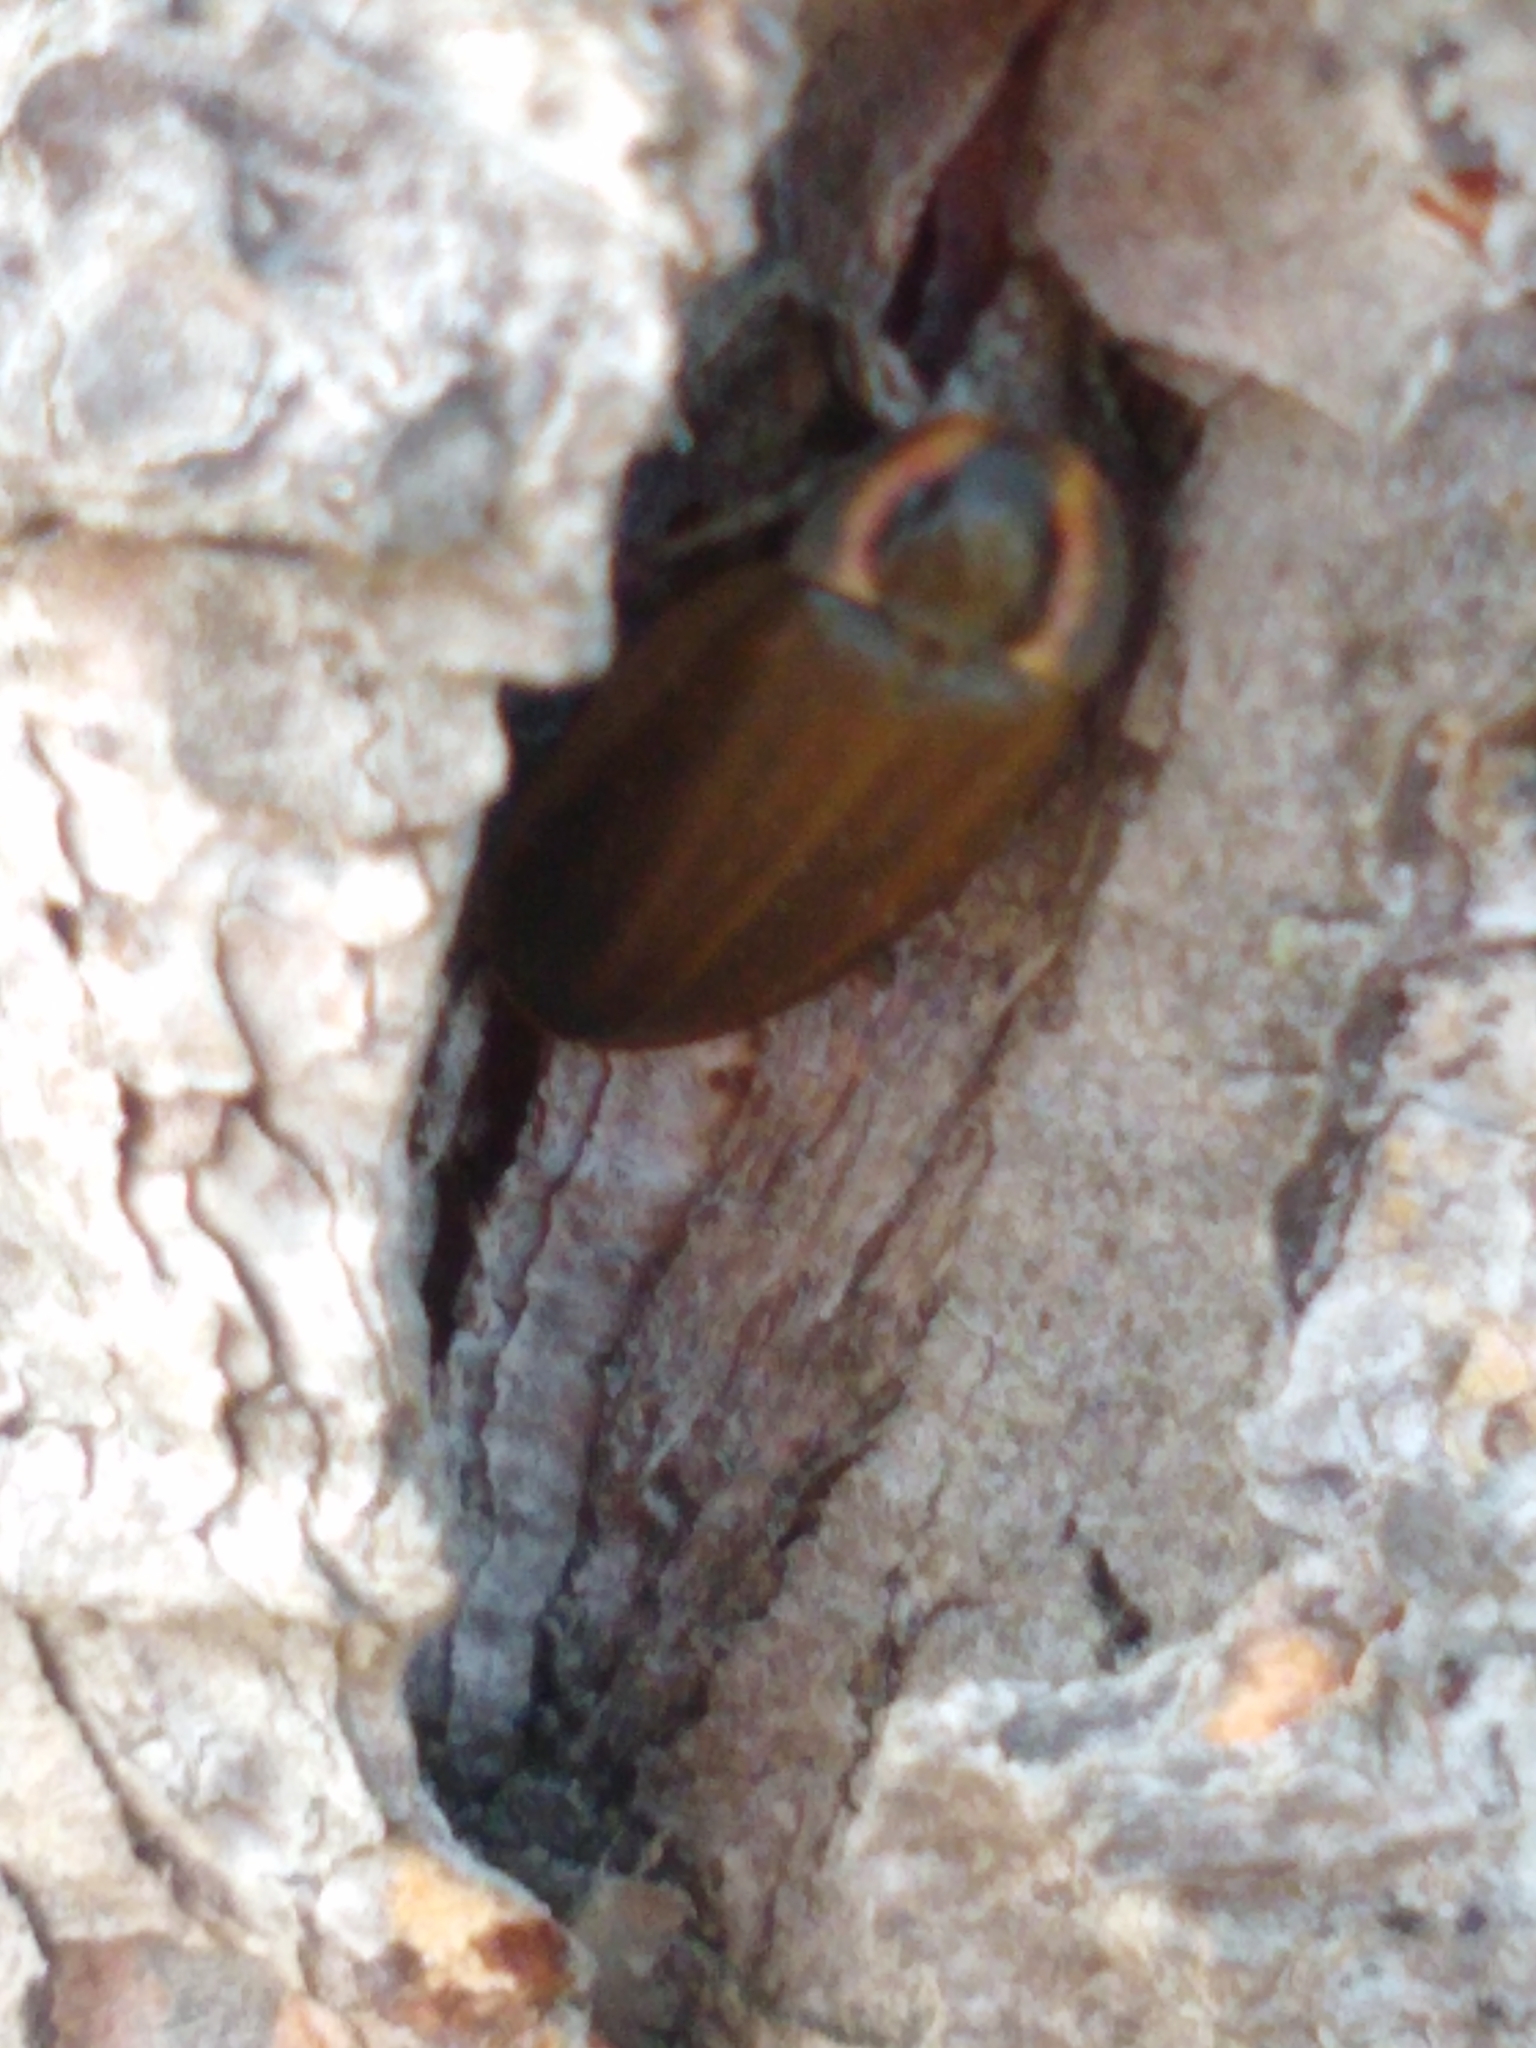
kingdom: Animalia
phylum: Arthropoda
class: Insecta
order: Coleoptera
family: Lampyridae
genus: Photinus
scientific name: Photinus corrusca
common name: Winter firefly
